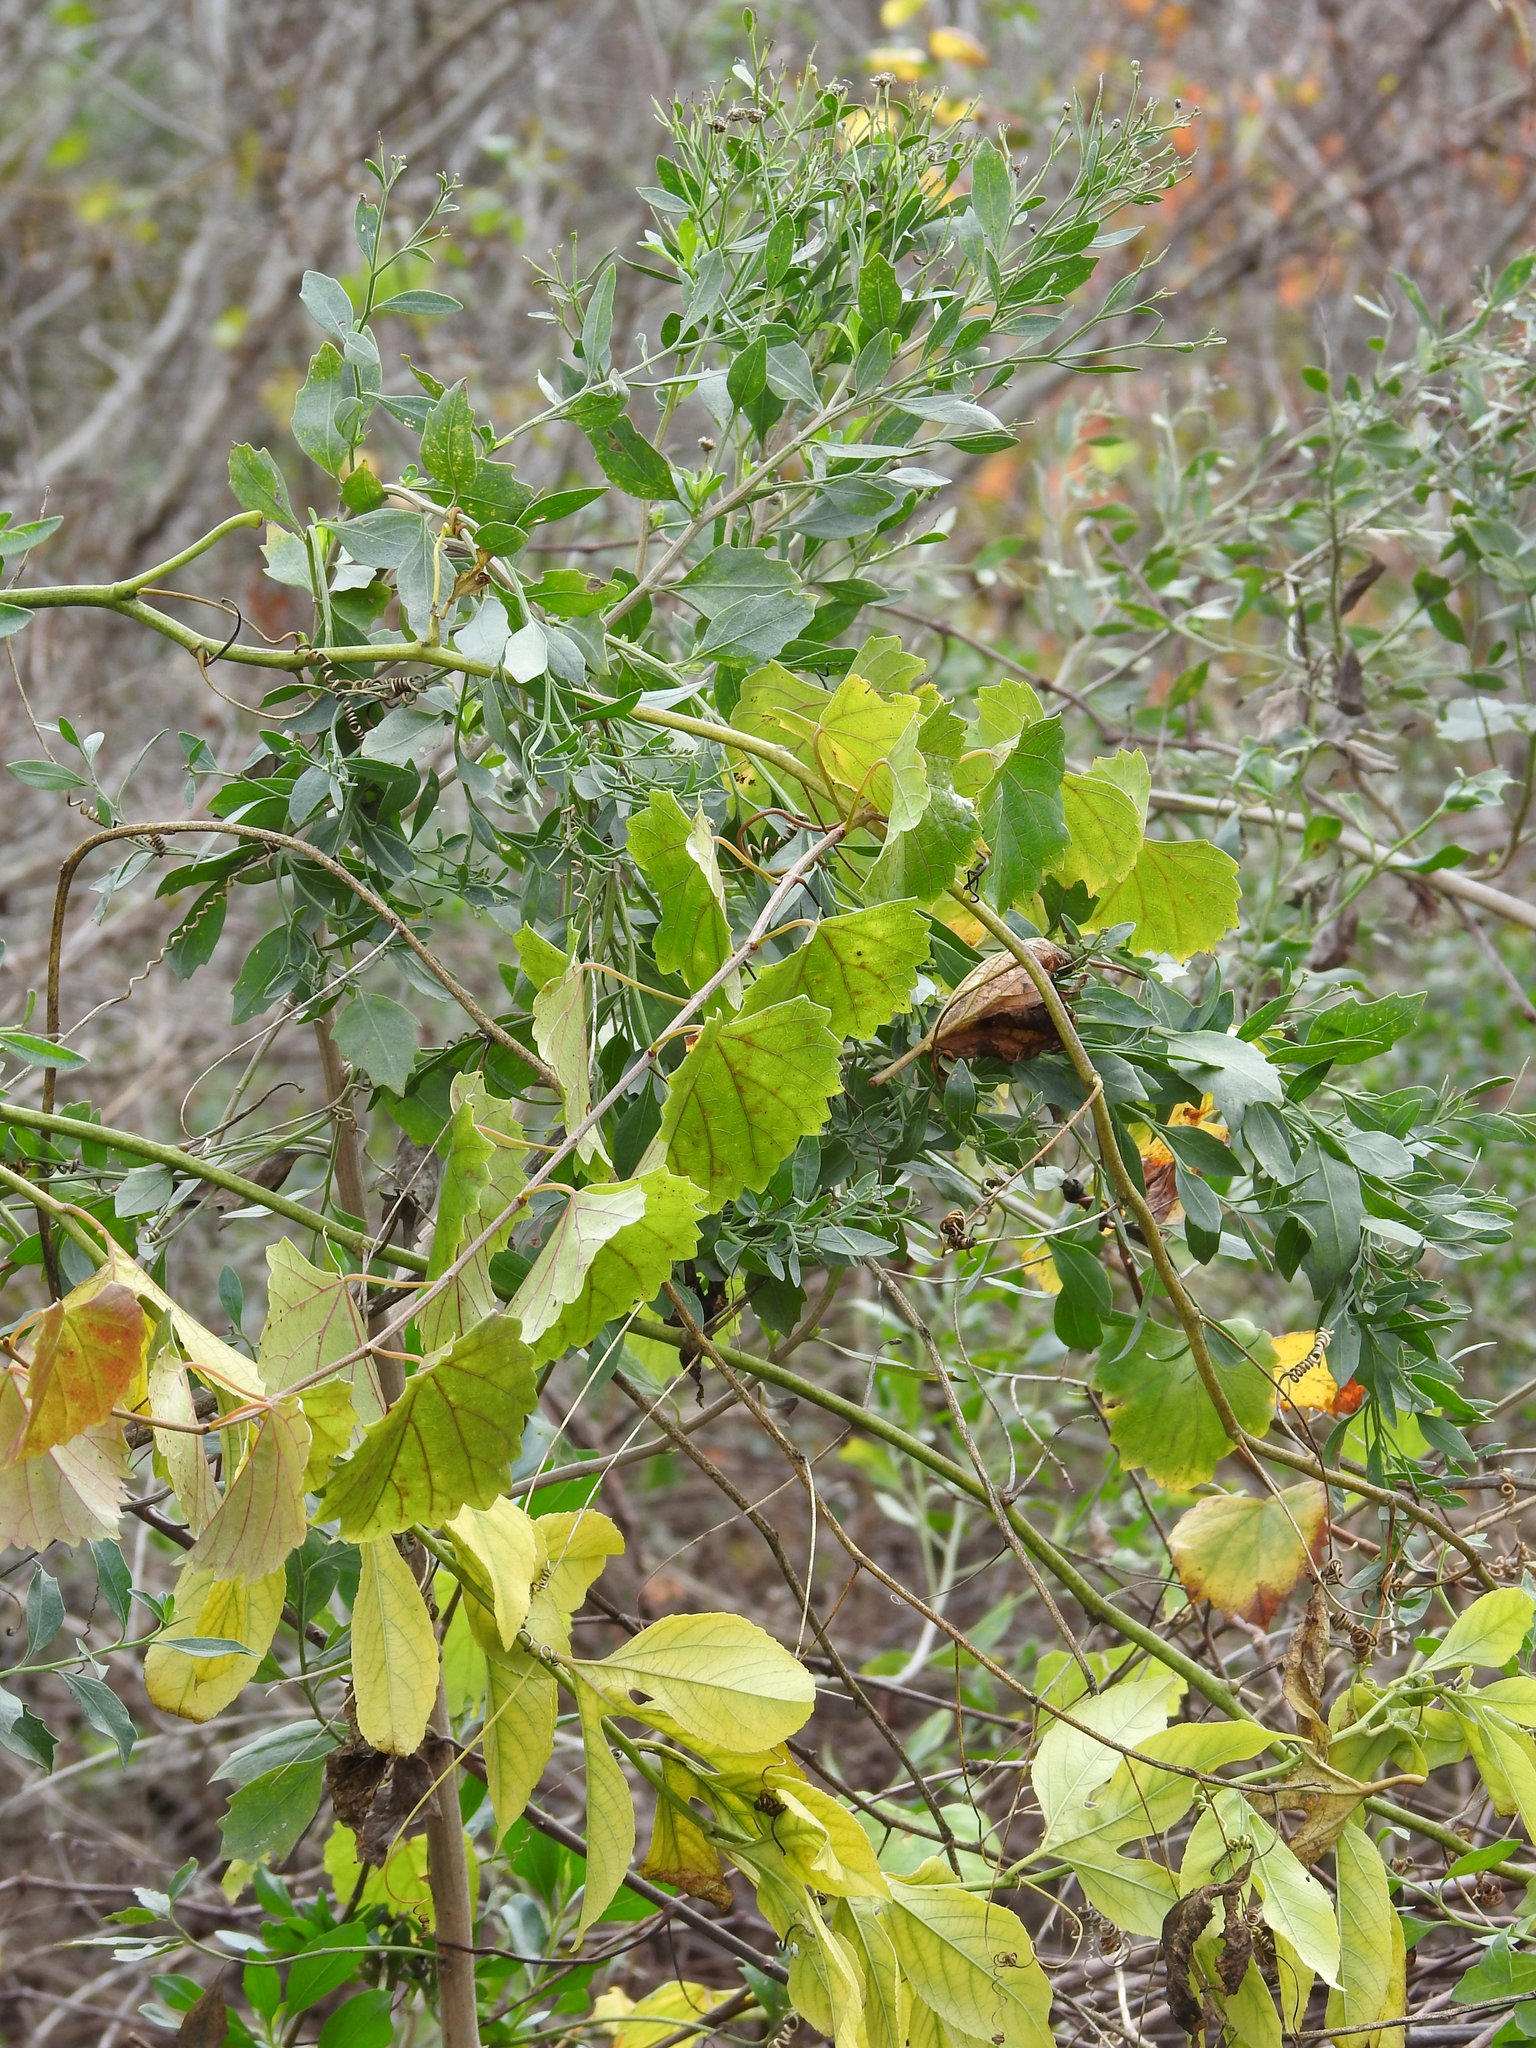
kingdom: Plantae
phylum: Tracheophyta
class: Magnoliopsida
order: Vitales
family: Vitaceae
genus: Vitis
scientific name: Vitis rotundifolia
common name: Muscadine grape
